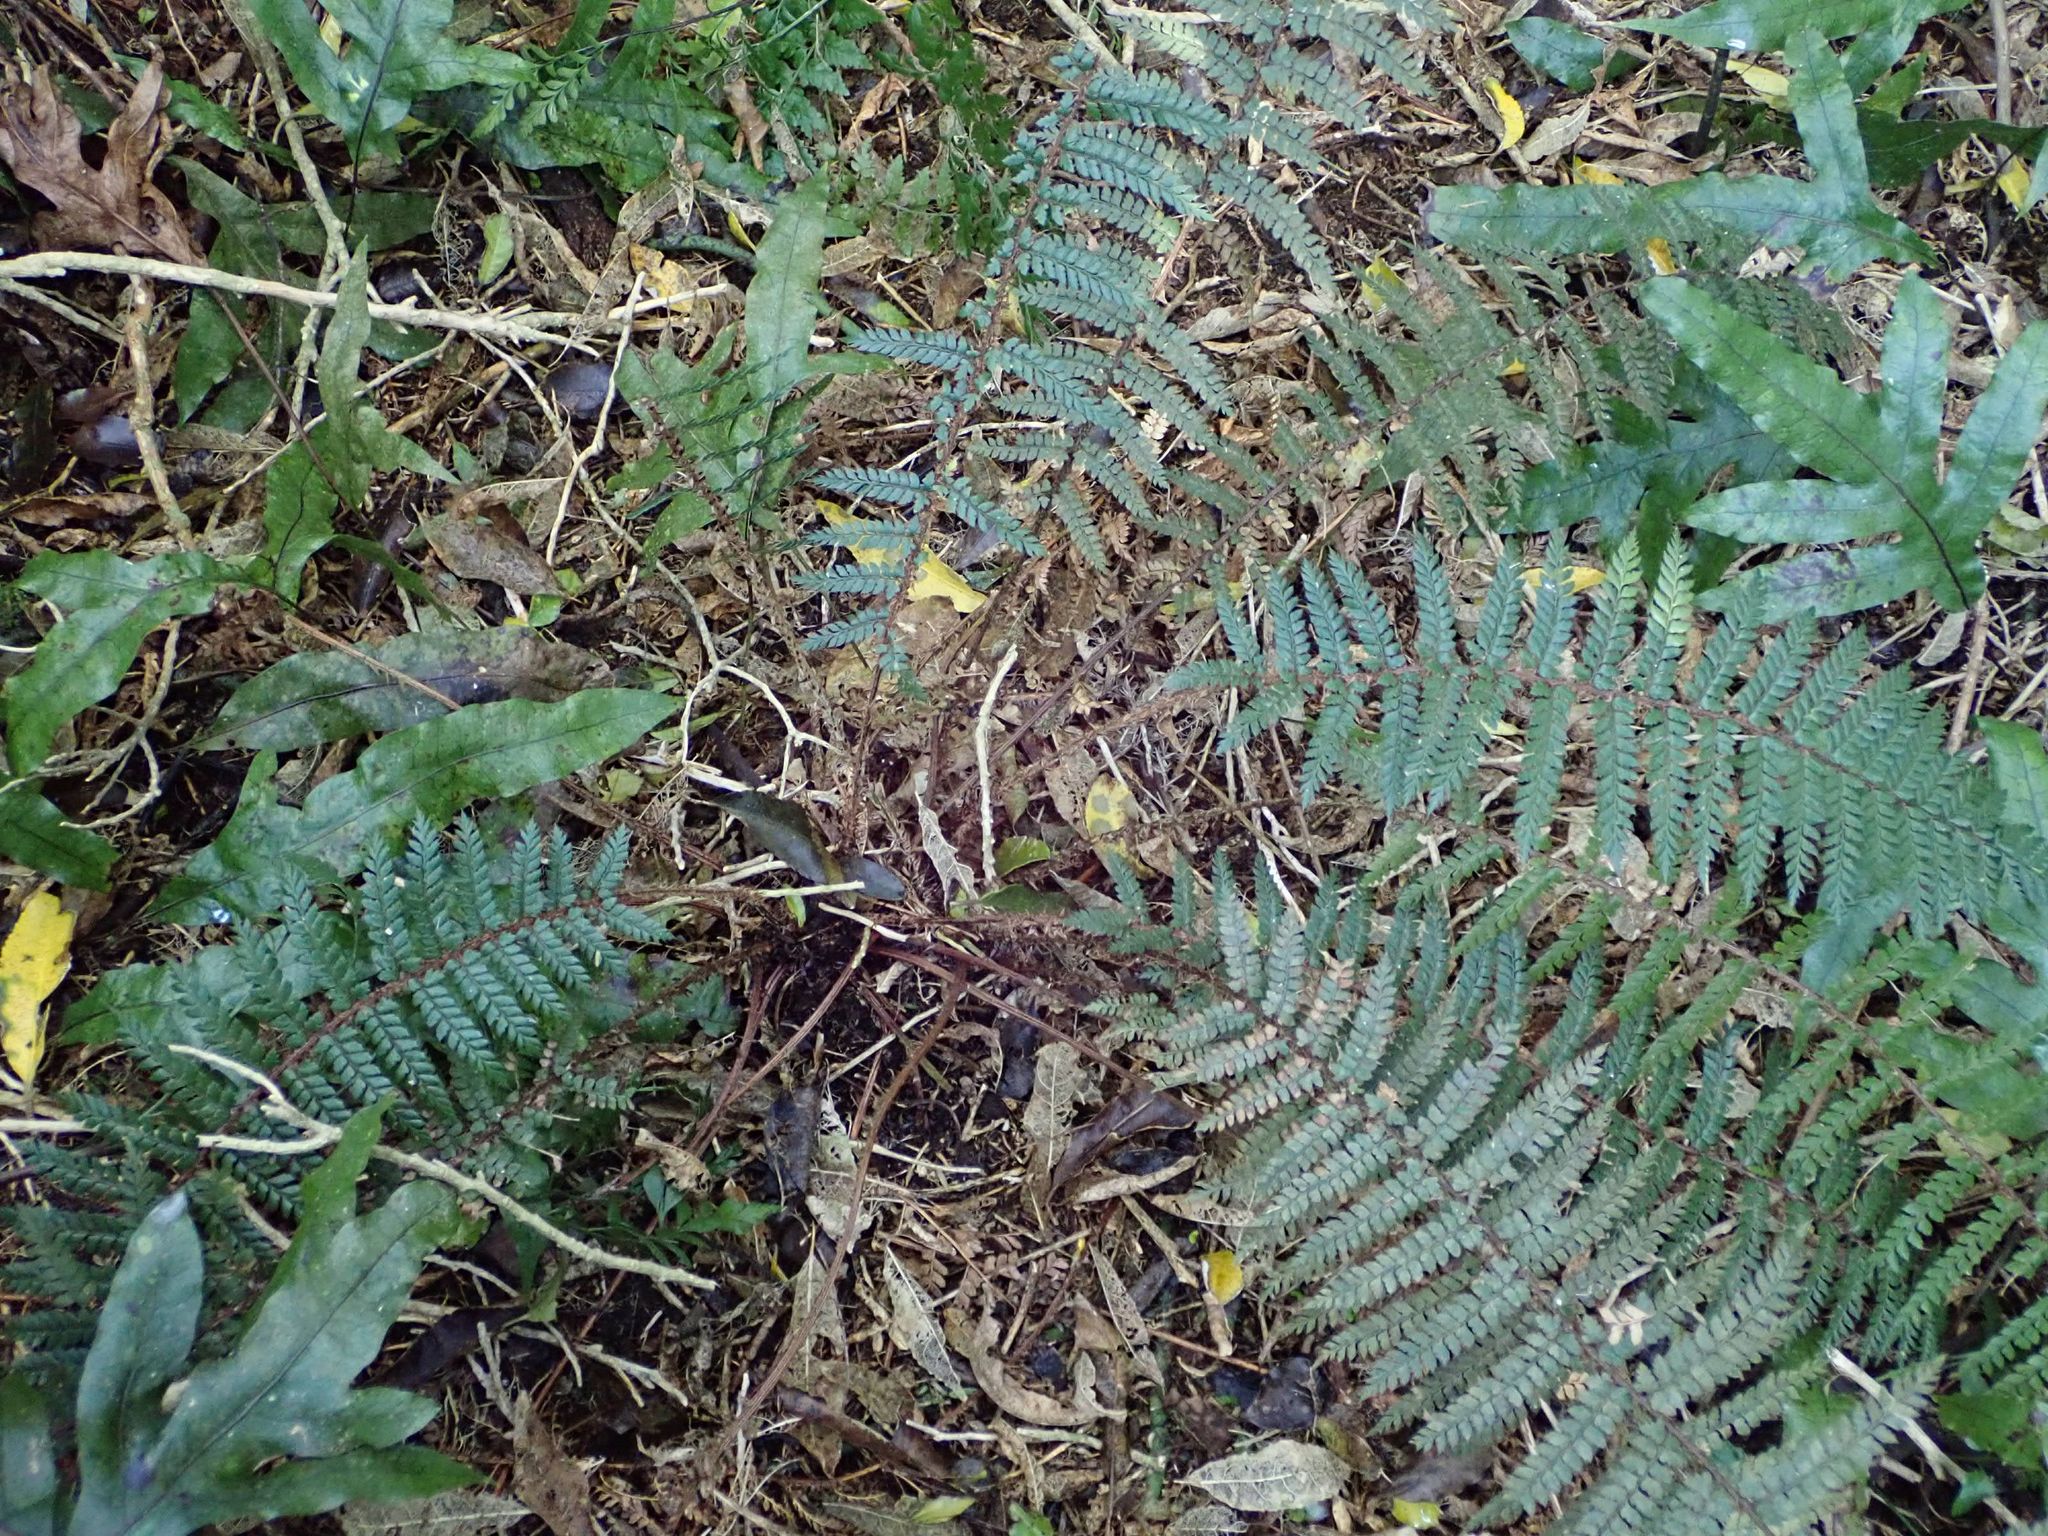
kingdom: Plantae
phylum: Tracheophyta
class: Polypodiopsida
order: Polypodiales
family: Dryopteridaceae
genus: Polystichum
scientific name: Polystichum vestitum
